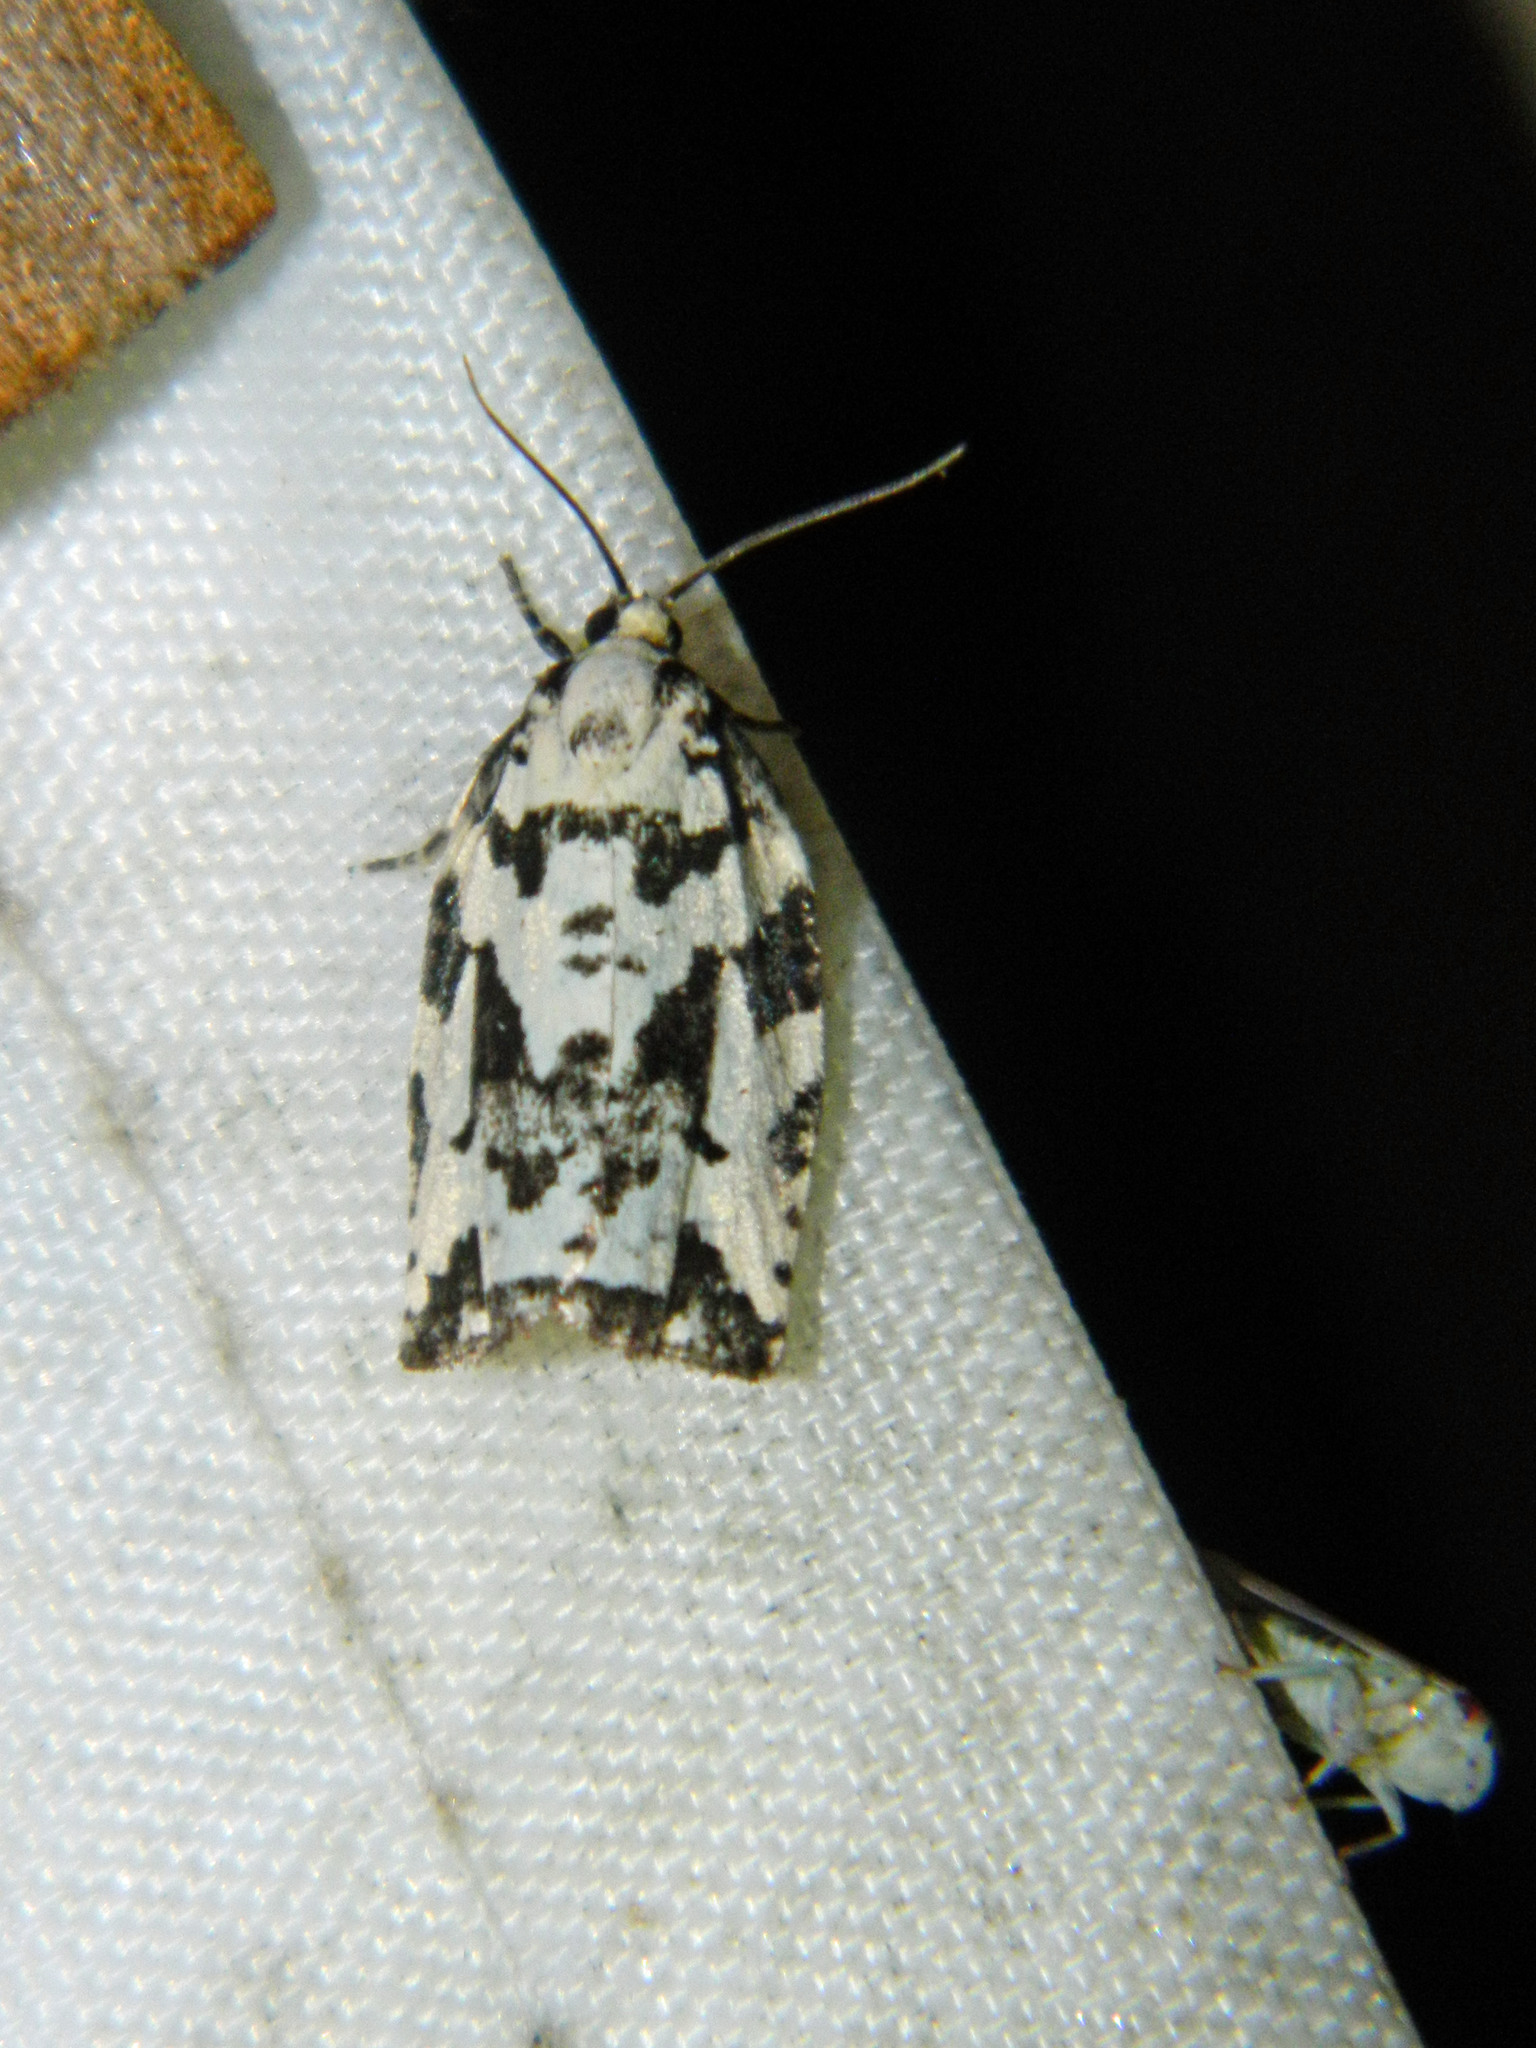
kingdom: Animalia
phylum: Arthropoda
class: Insecta
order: Lepidoptera
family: Tortricidae
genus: Archips
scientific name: Archips dissitana
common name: Boldly-marked archips moth
